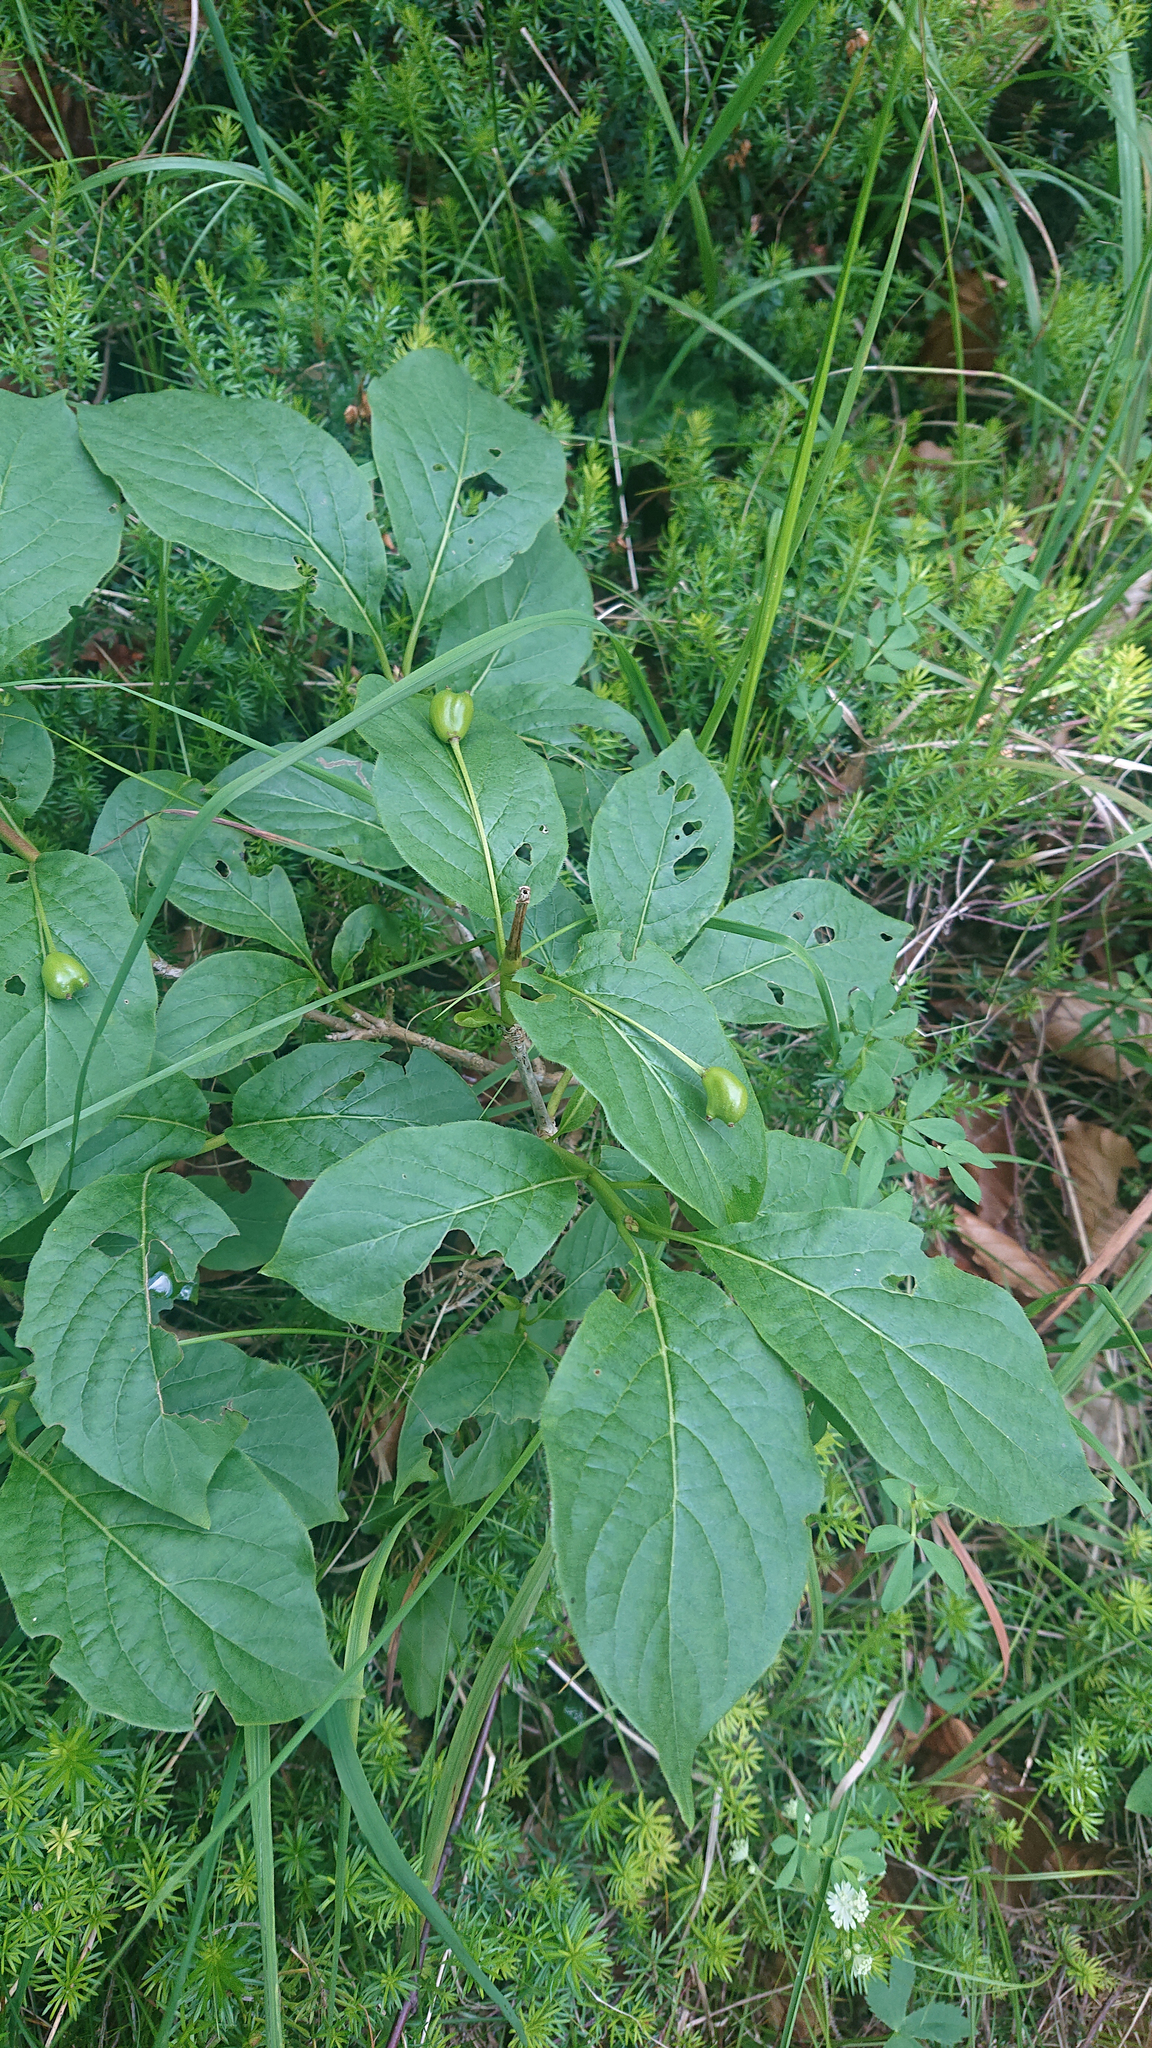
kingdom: Plantae
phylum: Tracheophyta
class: Magnoliopsida
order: Dipsacales
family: Caprifoliaceae
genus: Lonicera
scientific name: Lonicera alpigena
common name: Alpine honeysuckle
